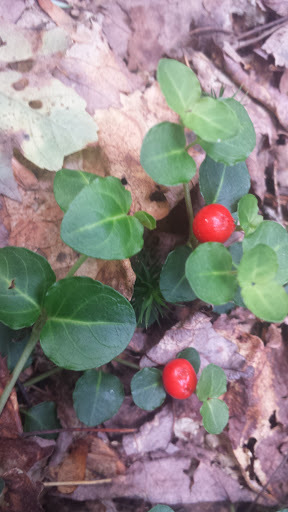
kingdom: Plantae
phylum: Tracheophyta
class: Magnoliopsida
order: Gentianales
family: Rubiaceae
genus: Mitchella
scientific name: Mitchella repens
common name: Partridge-berry
